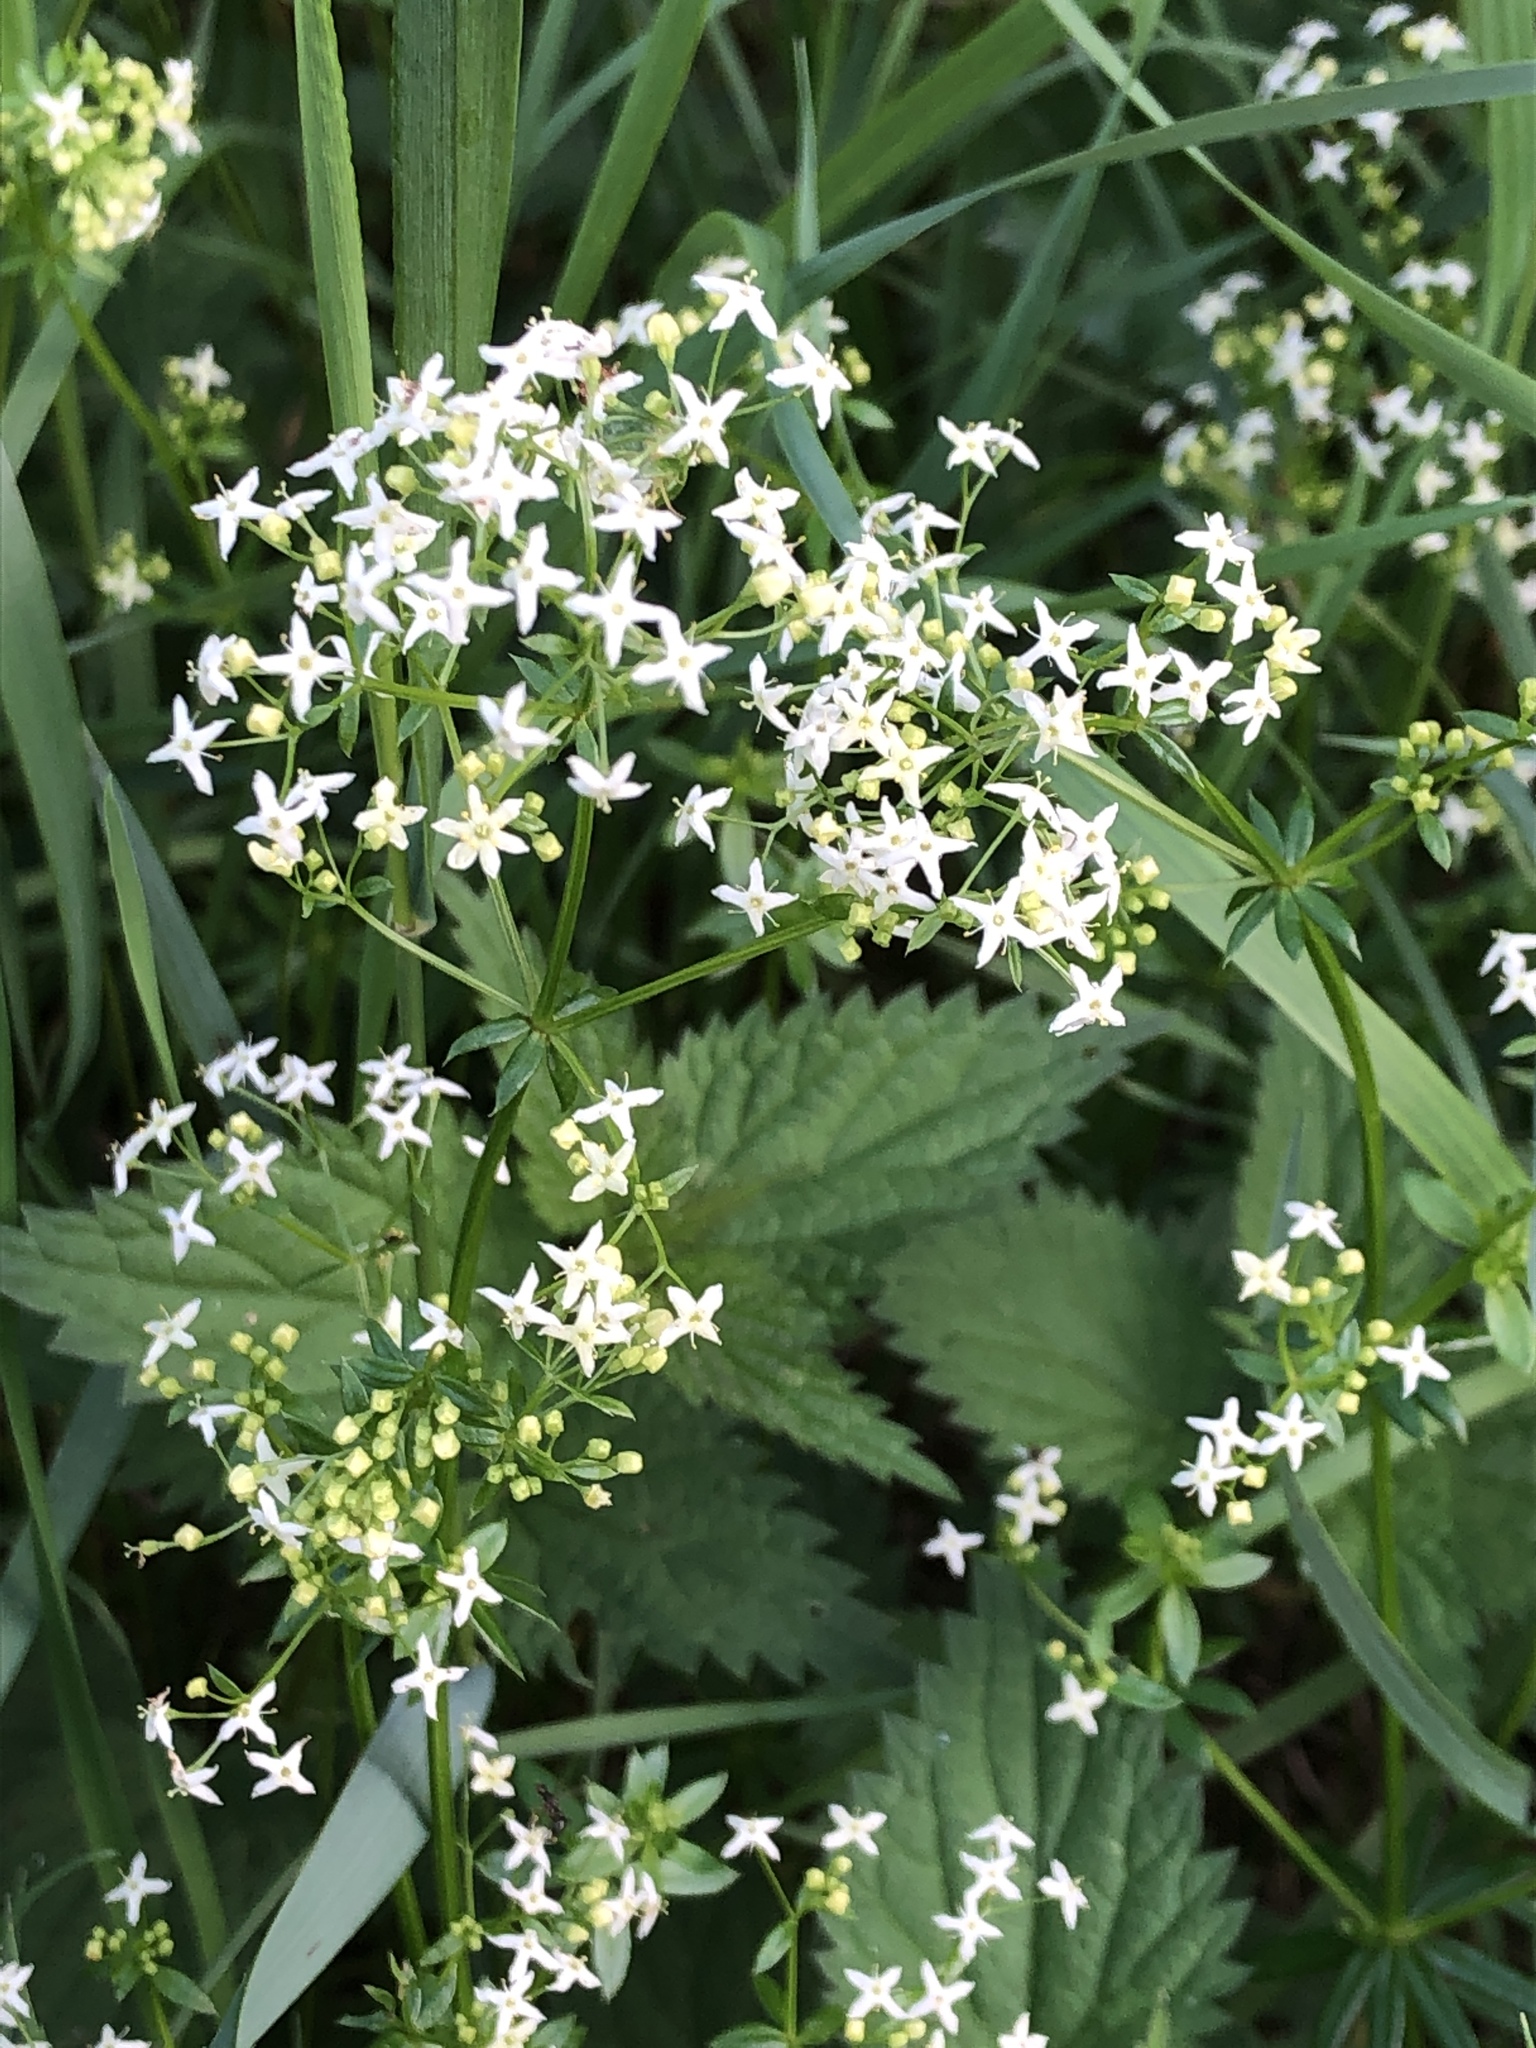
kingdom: Plantae
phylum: Tracheophyta
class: Magnoliopsida
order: Gentianales
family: Rubiaceae
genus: Galium
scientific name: Galium album
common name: White bedstraw
